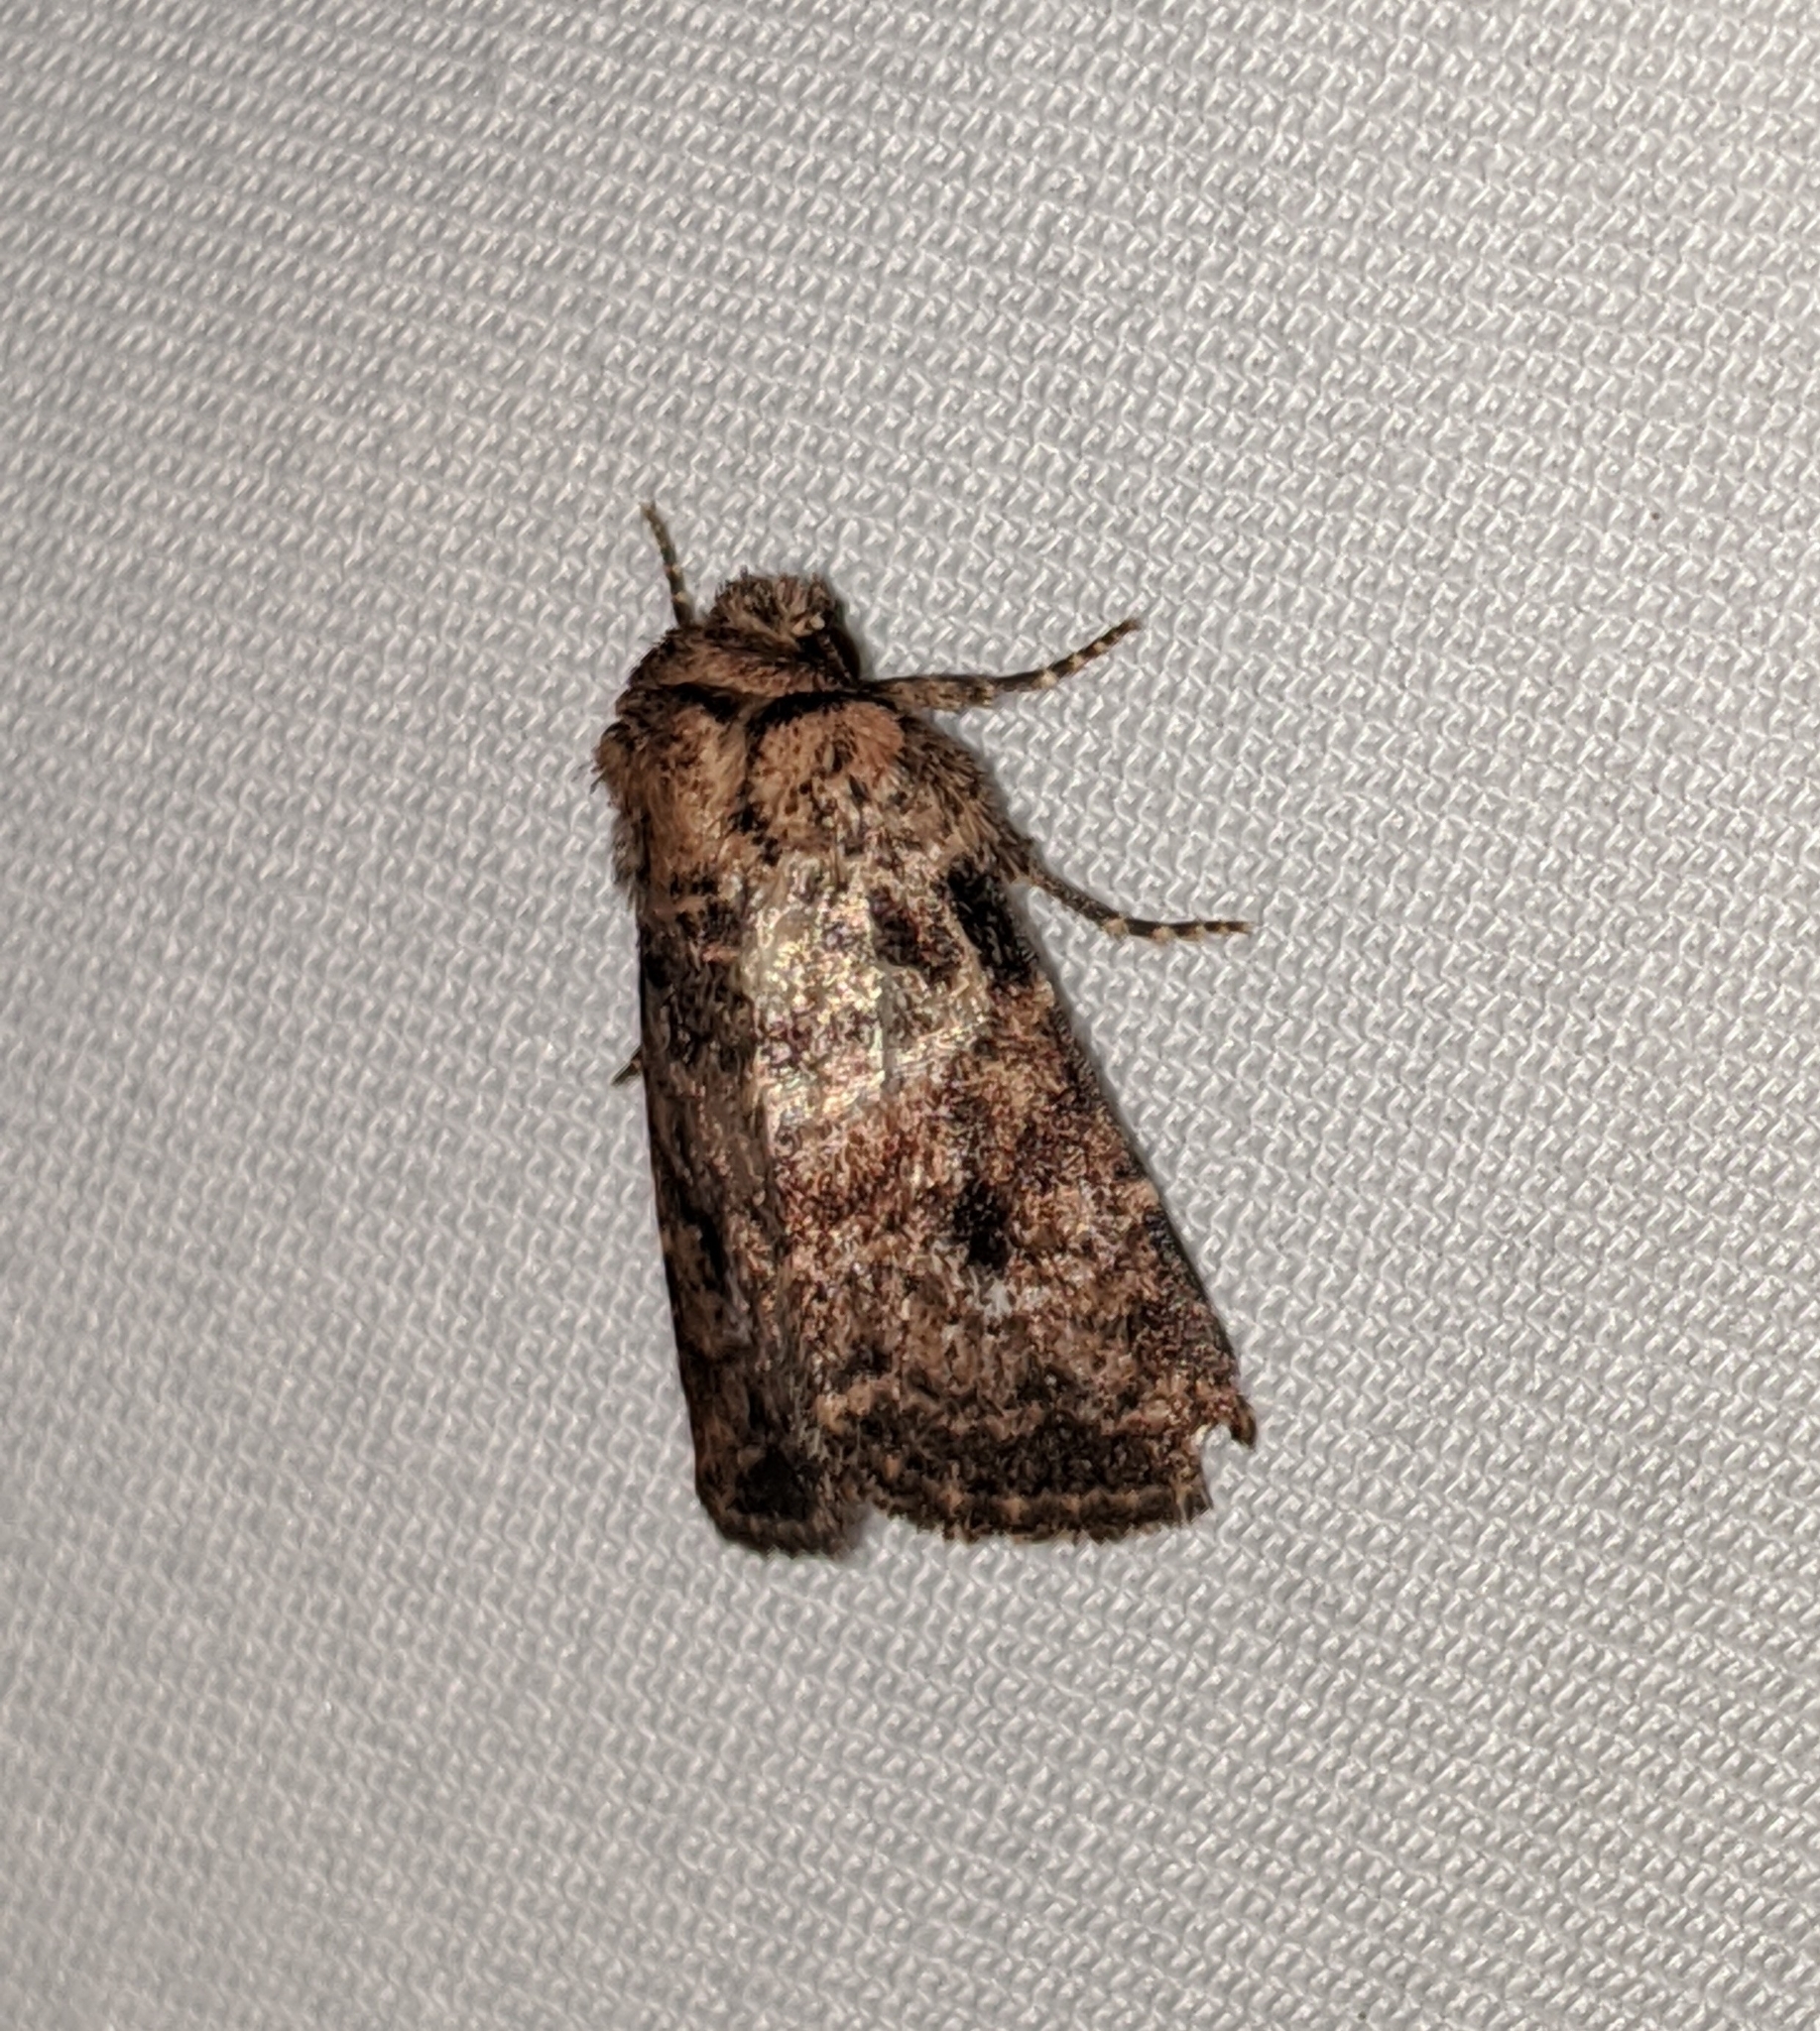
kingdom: Animalia
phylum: Arthropoda
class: Insecta
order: Lepidoptera
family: Noctuidae
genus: Homorthodes
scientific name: Homorthodes hanhami
